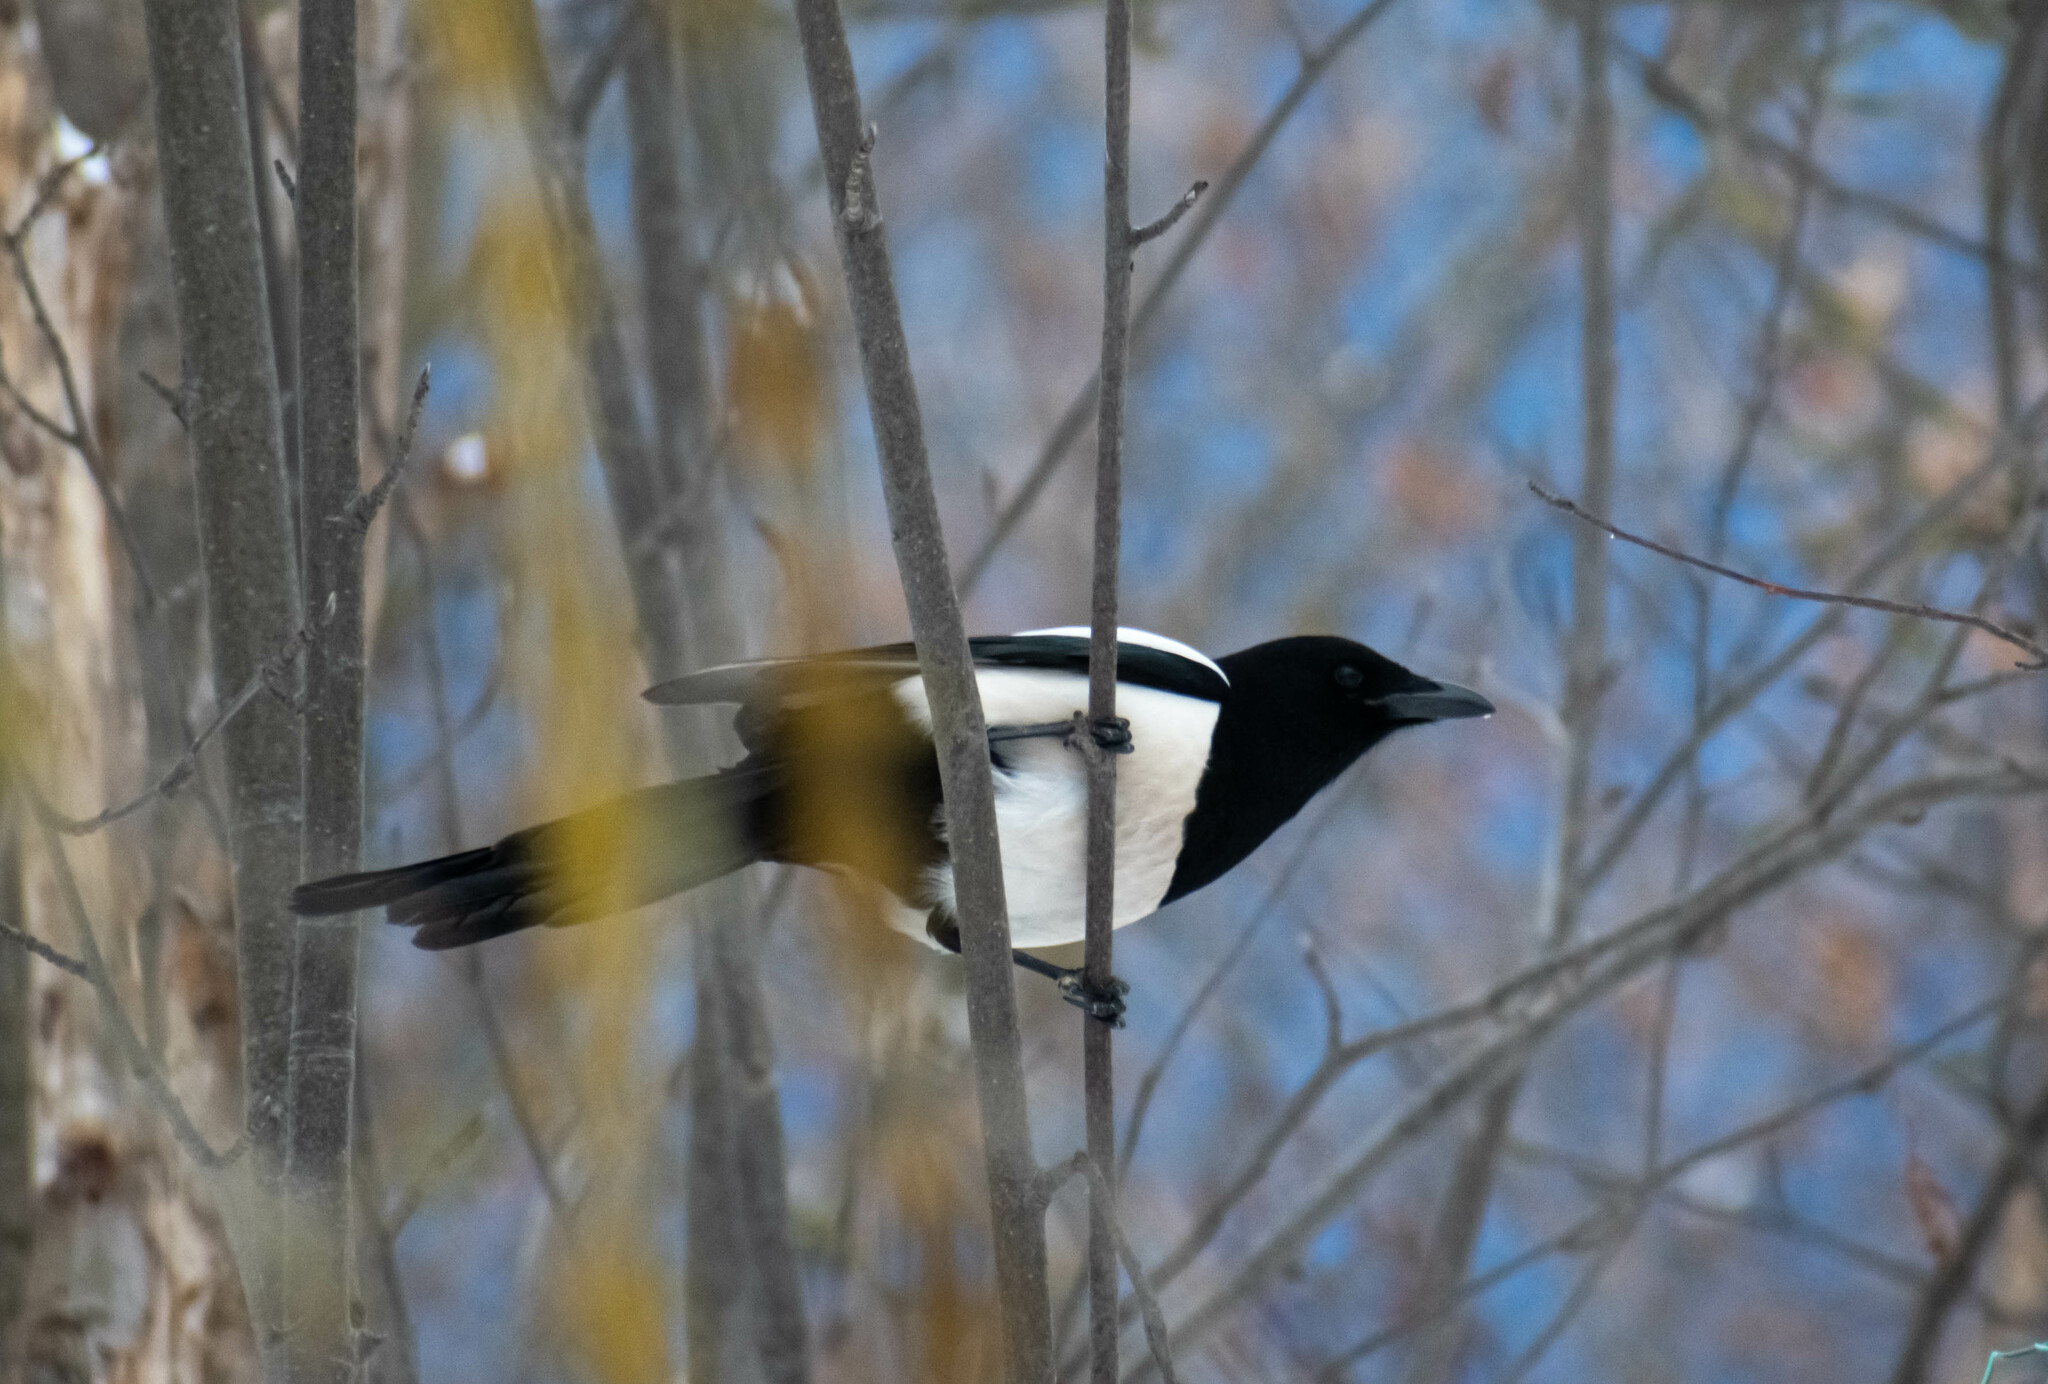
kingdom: Animalia
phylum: Chordata
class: Aves
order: Passeriformes
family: Corvidae
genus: Pica
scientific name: Pica pica
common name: Eurasian magpie
